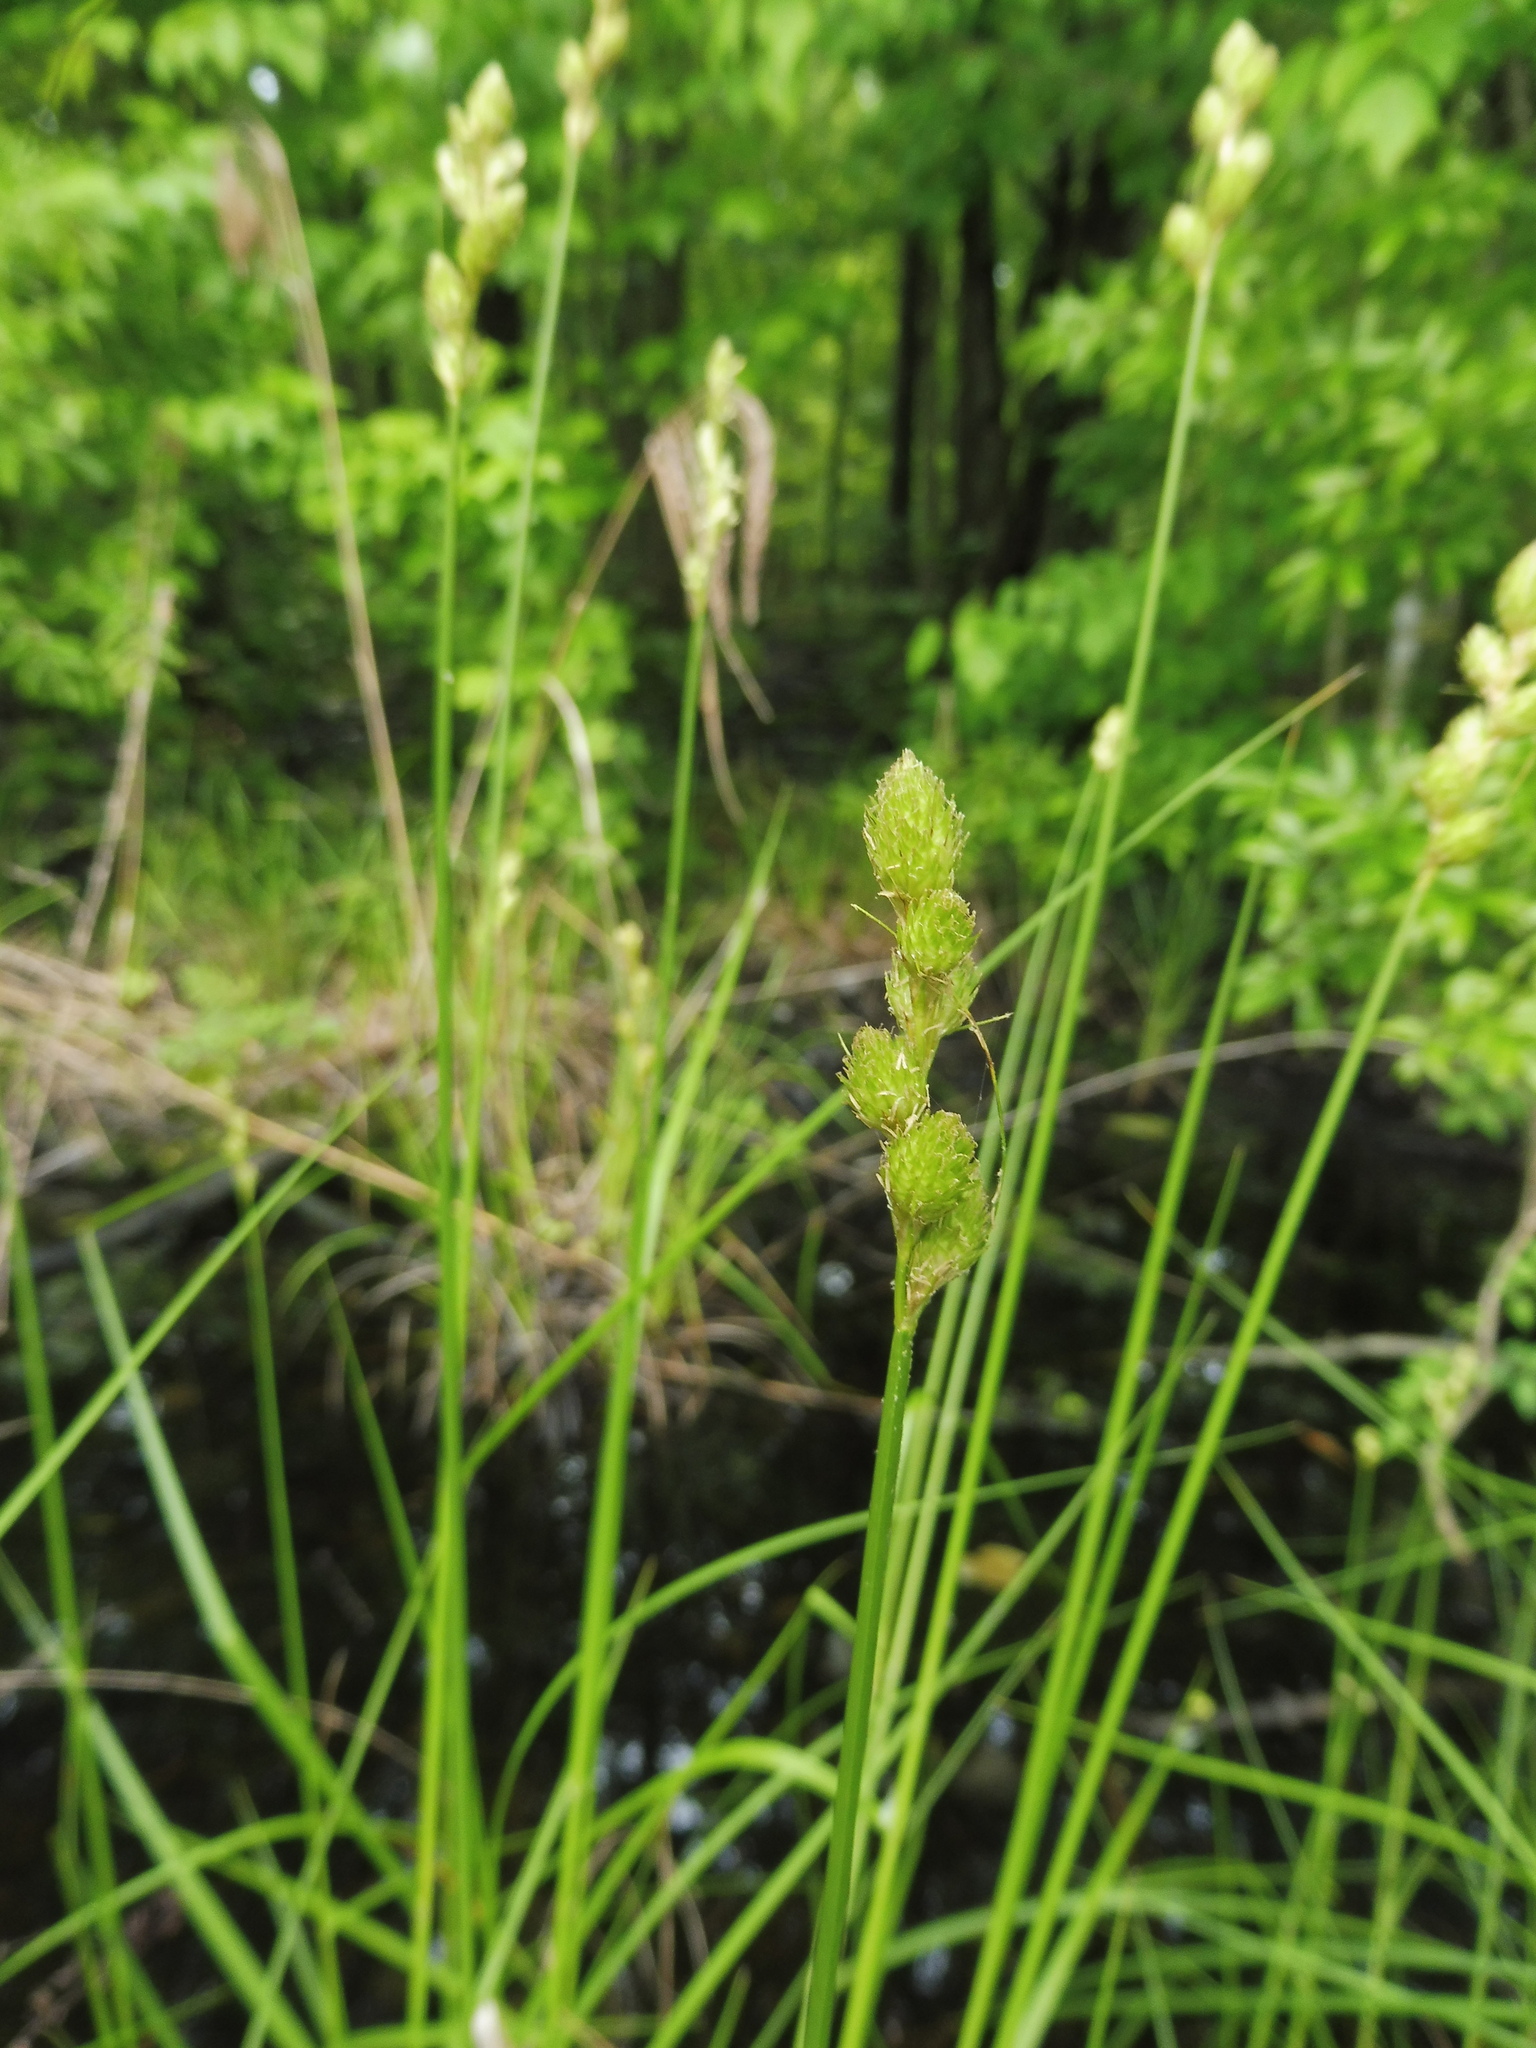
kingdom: Plantae
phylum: Tracheophyta
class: Liliopsida
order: Poales
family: Cyperaceae
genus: Carex
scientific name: Carex alata
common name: Broad-winged sedge
